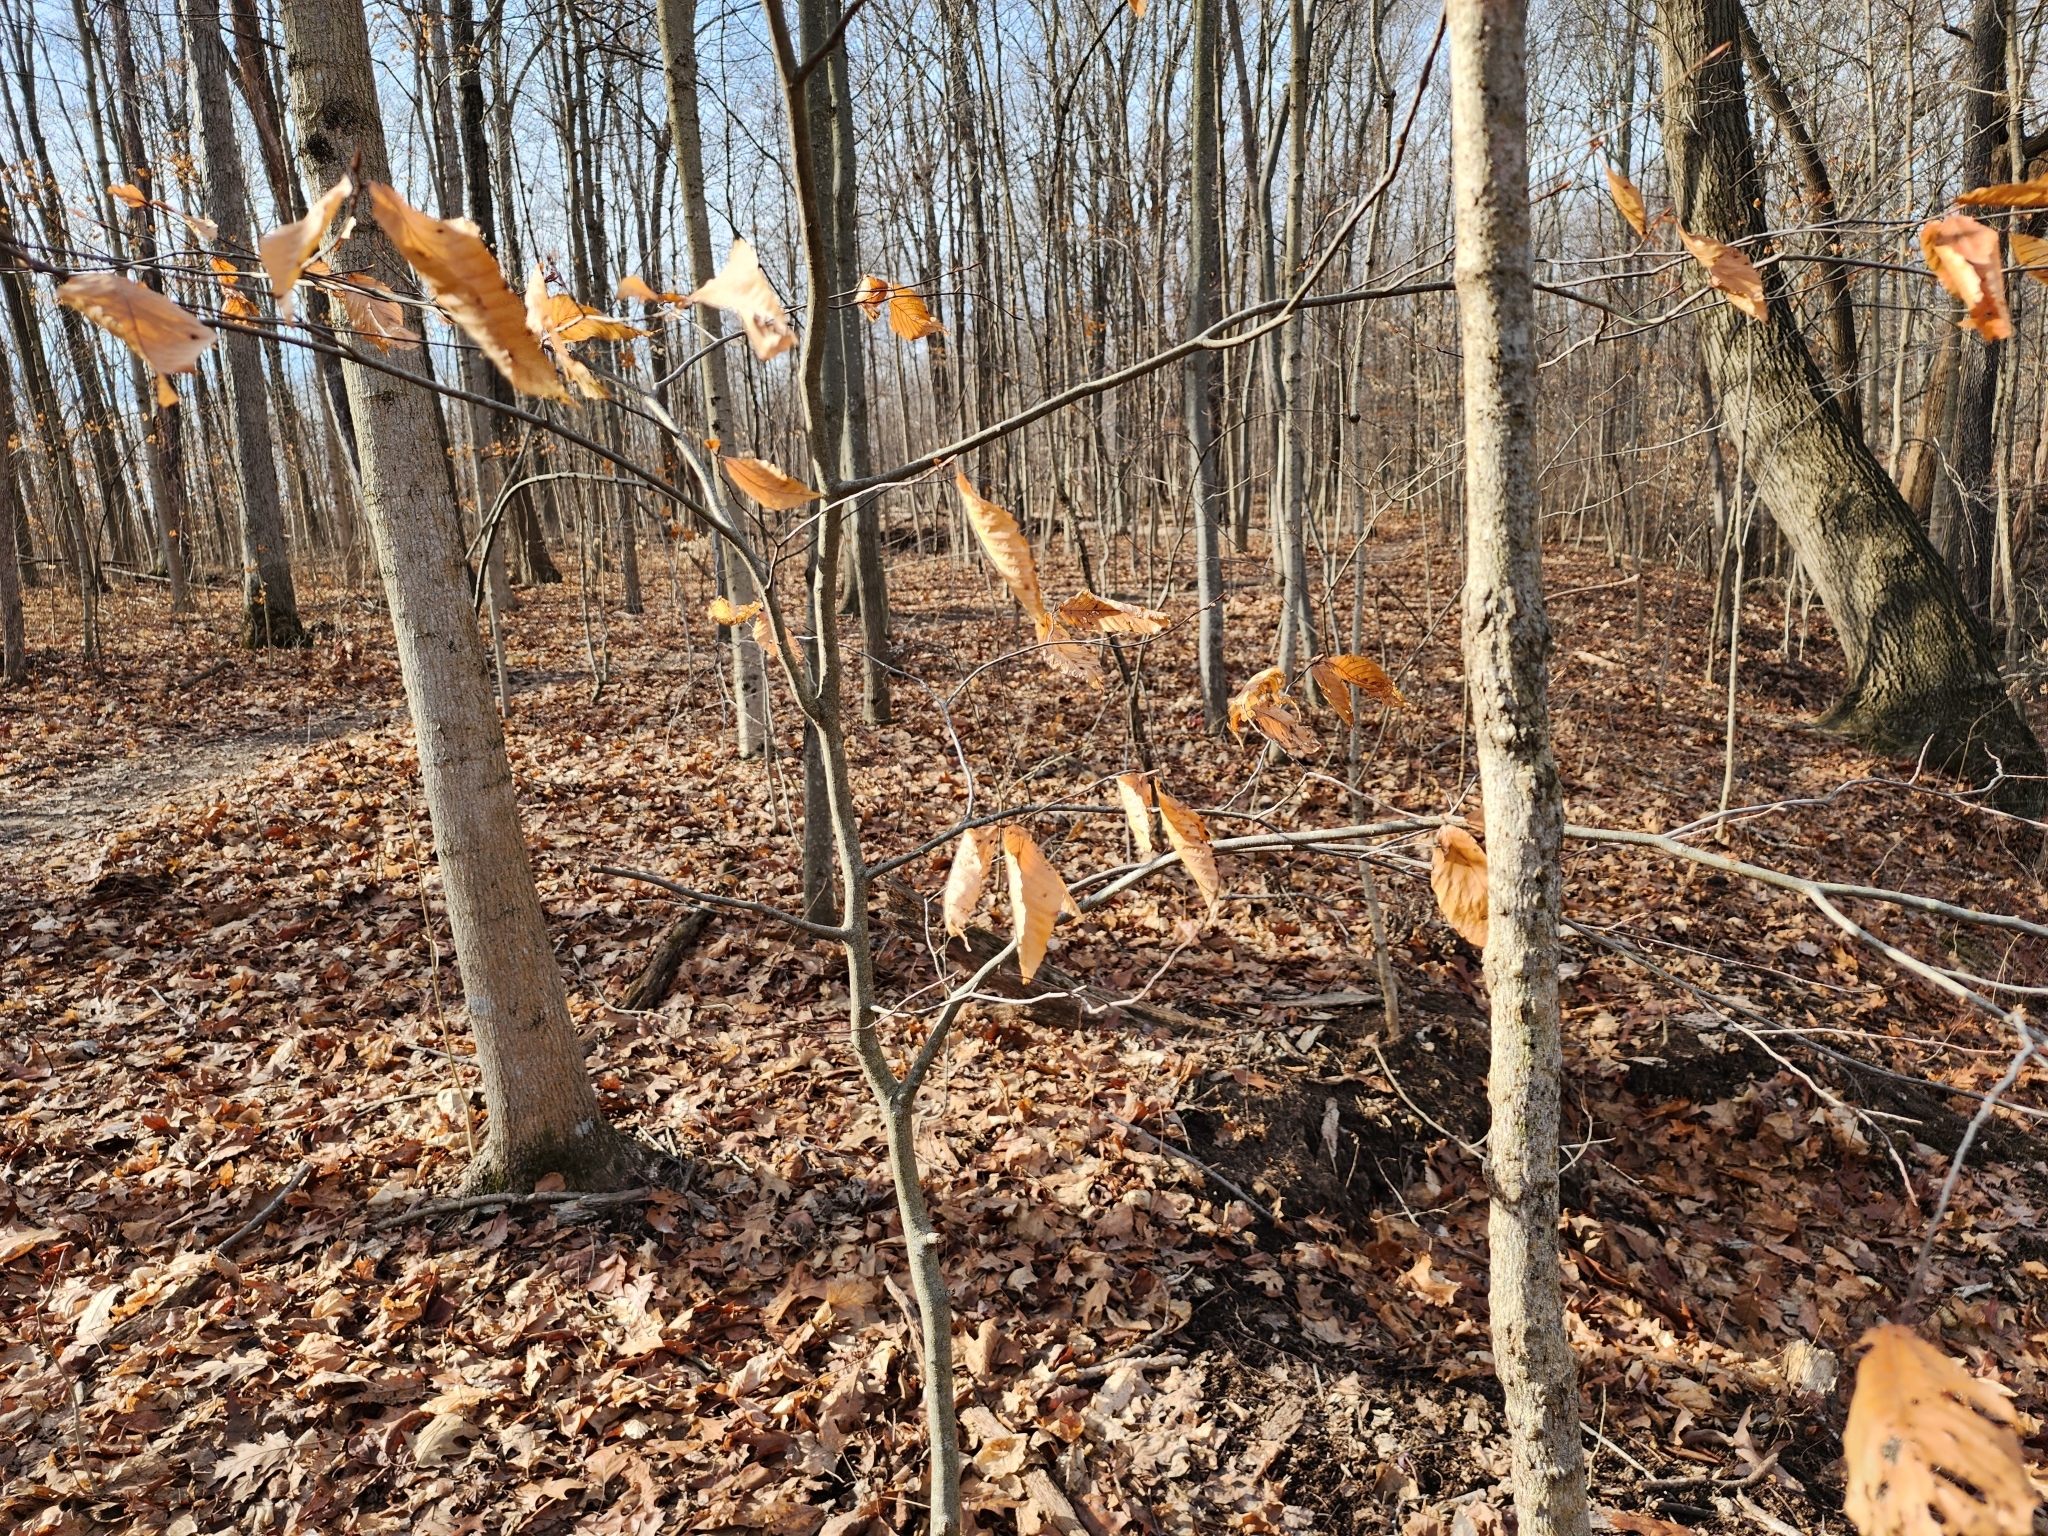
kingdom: Plantae
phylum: Tracheophyta
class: Magnoliopsida
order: Fagales
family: Fagaceae
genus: Fagus
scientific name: Fagus grandifolia
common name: American beech
